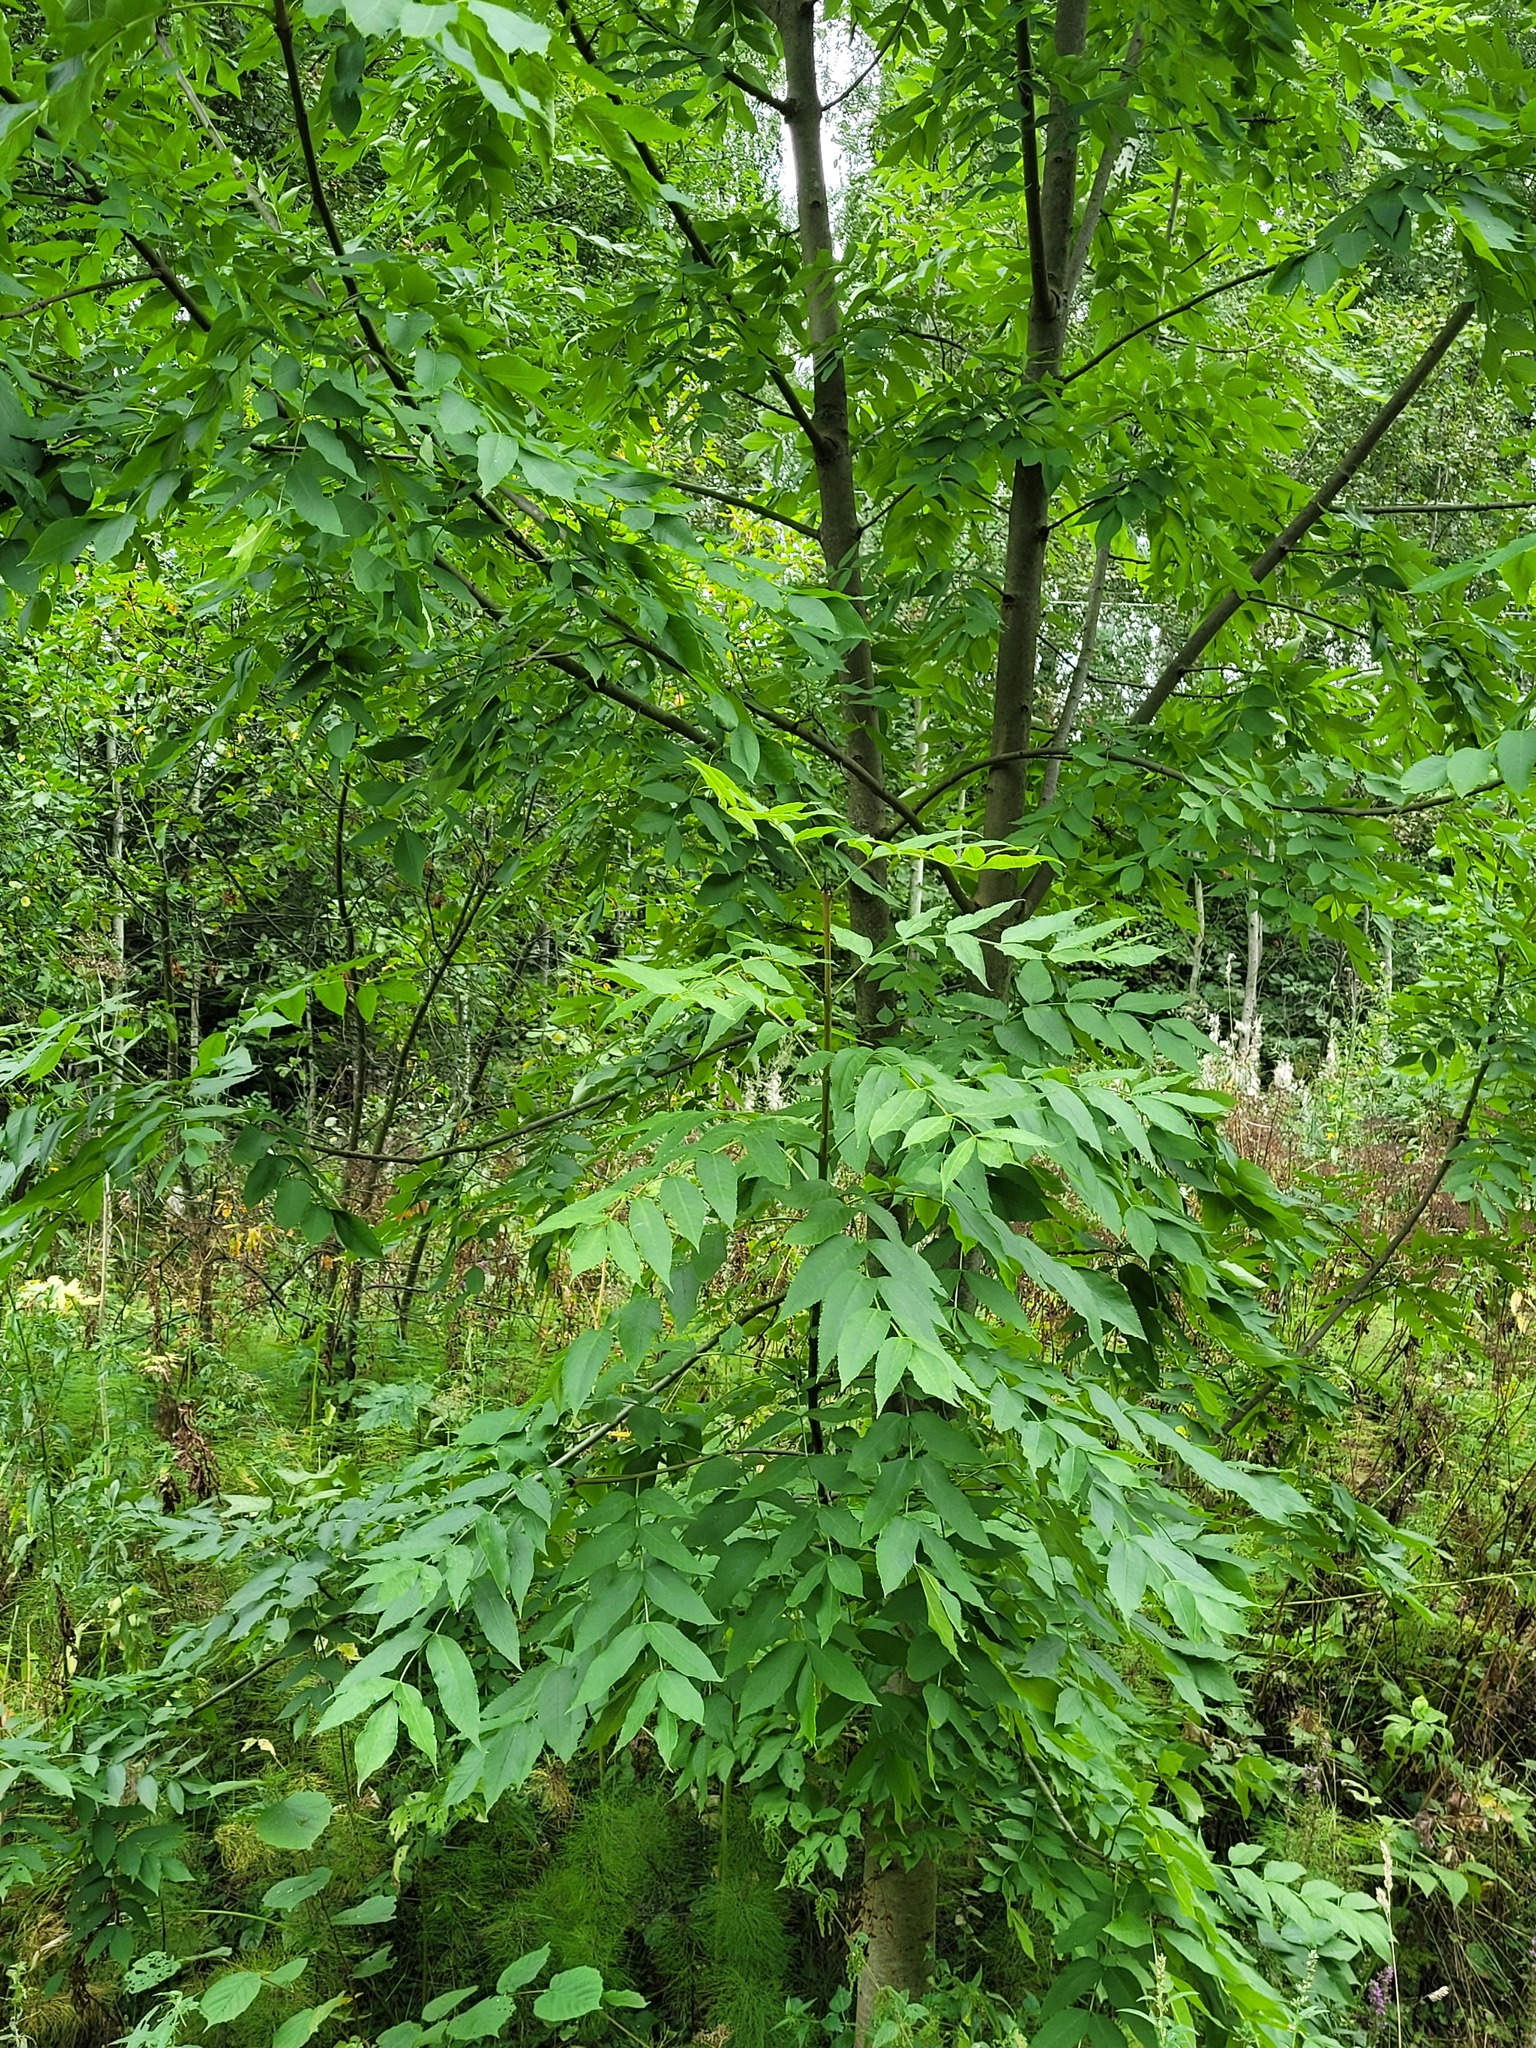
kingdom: Plantae
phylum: Tracheophyta
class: Magnoliopsida
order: Lamiales
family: Oleaceae
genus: Fraxinus
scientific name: Fraxinus excelsior
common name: European ash
